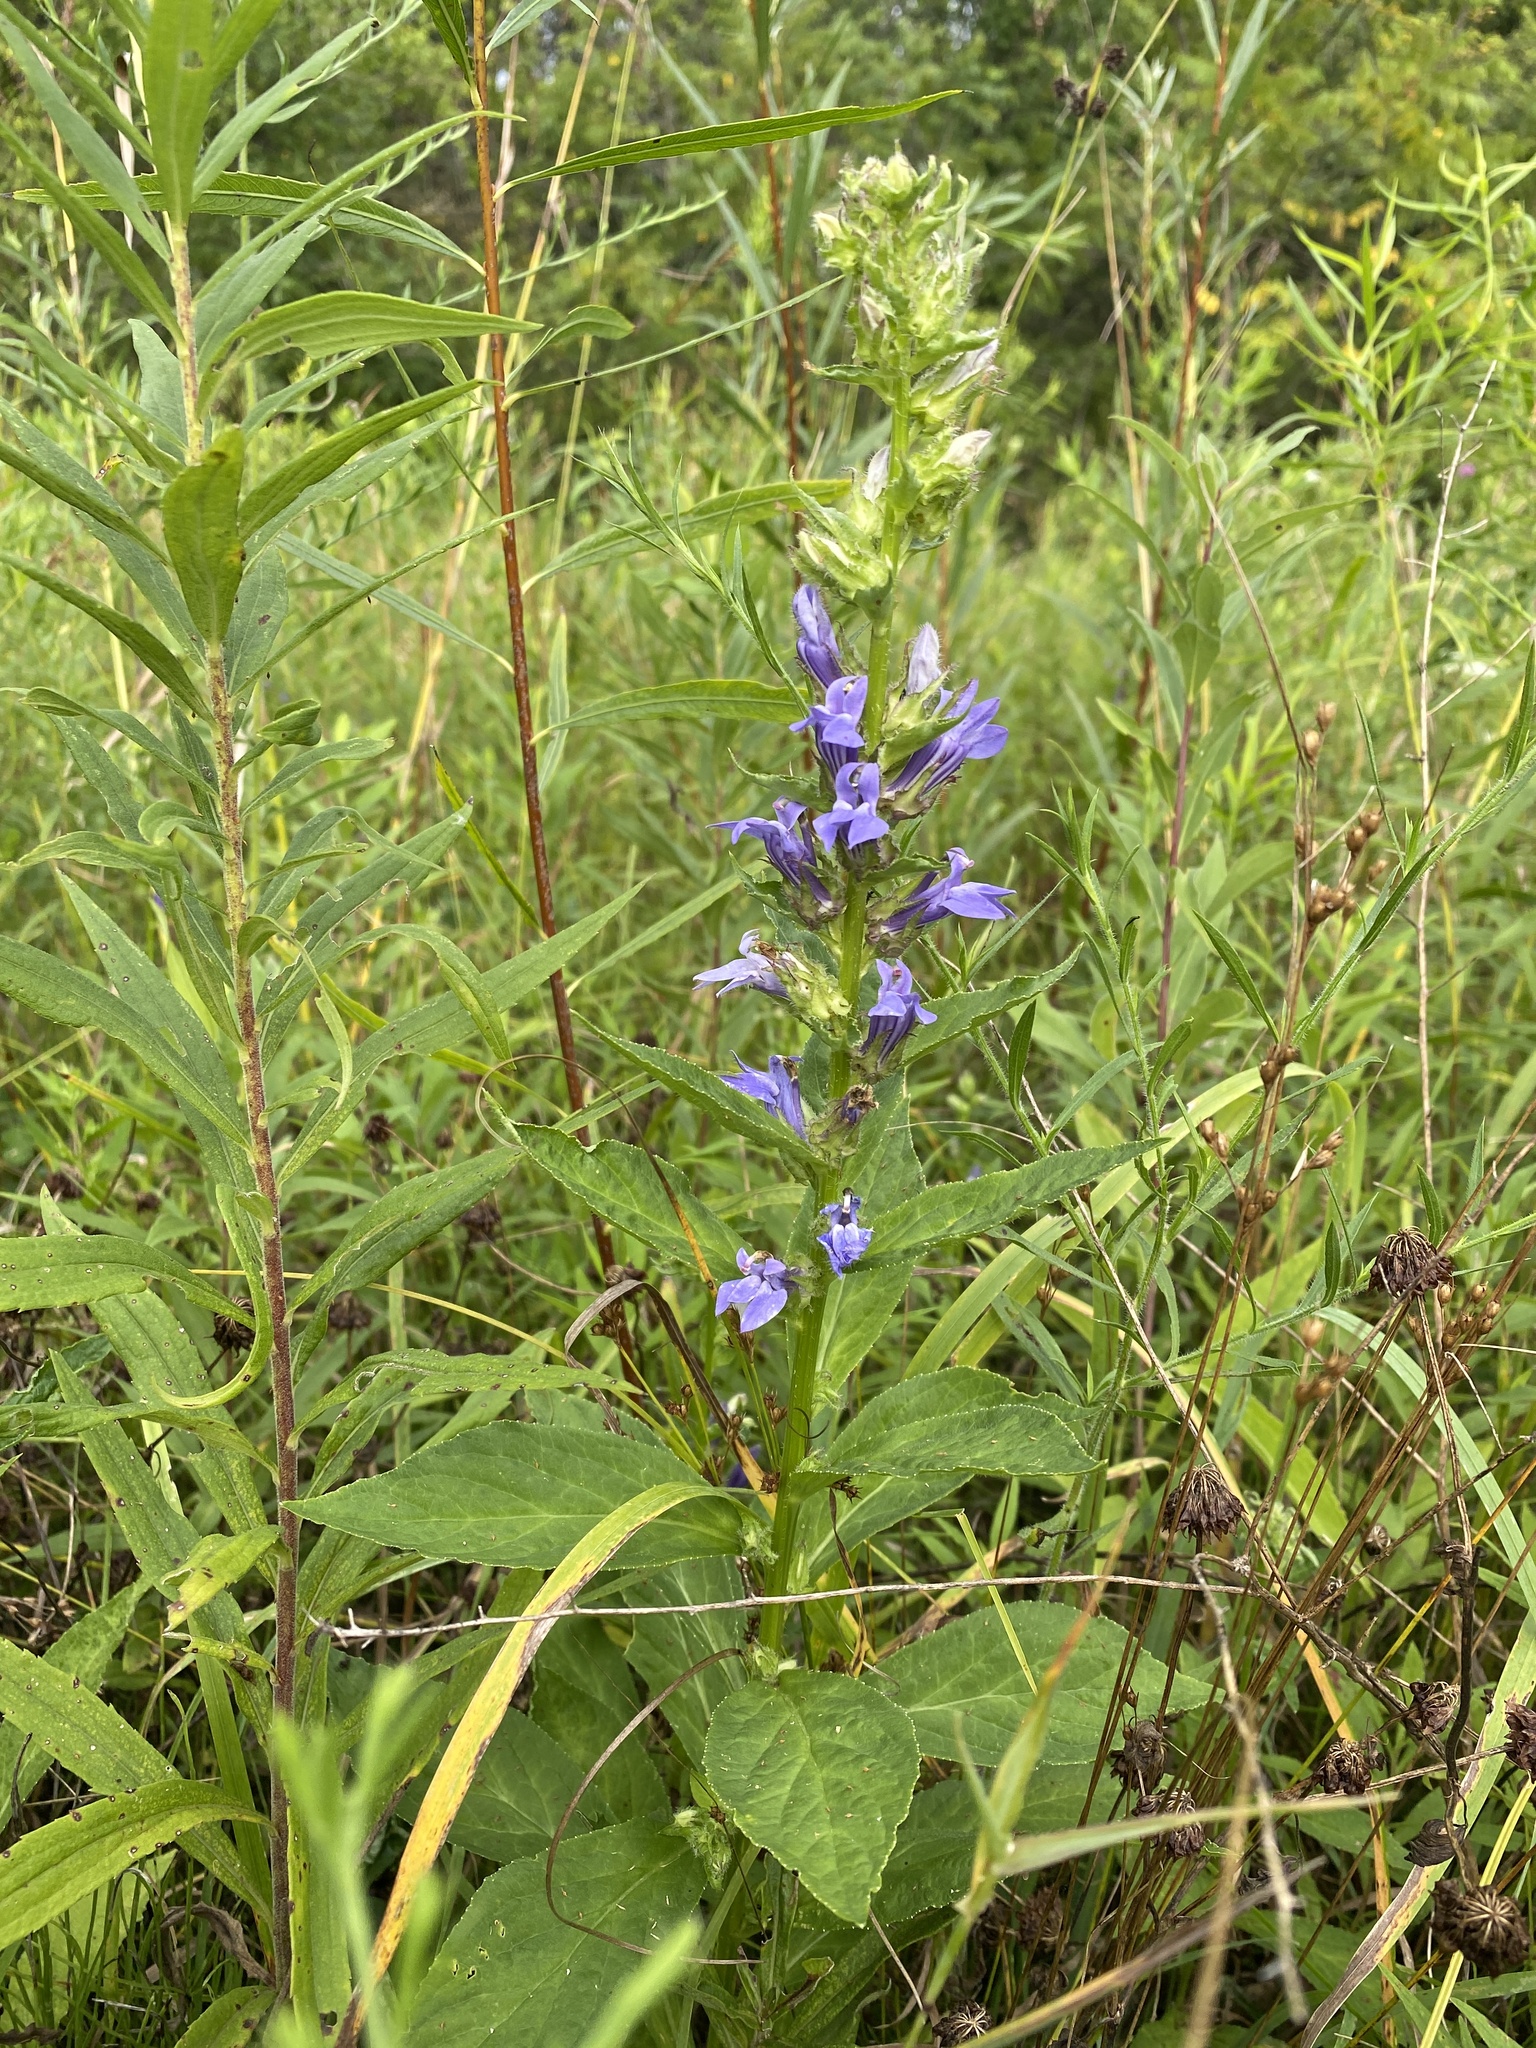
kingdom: Plantae
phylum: Tracheophyta
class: Magnoliopsida
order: Asterales
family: Campanulaceae
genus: Lobelia
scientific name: Lobelia siphilitica
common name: Great lobelia
